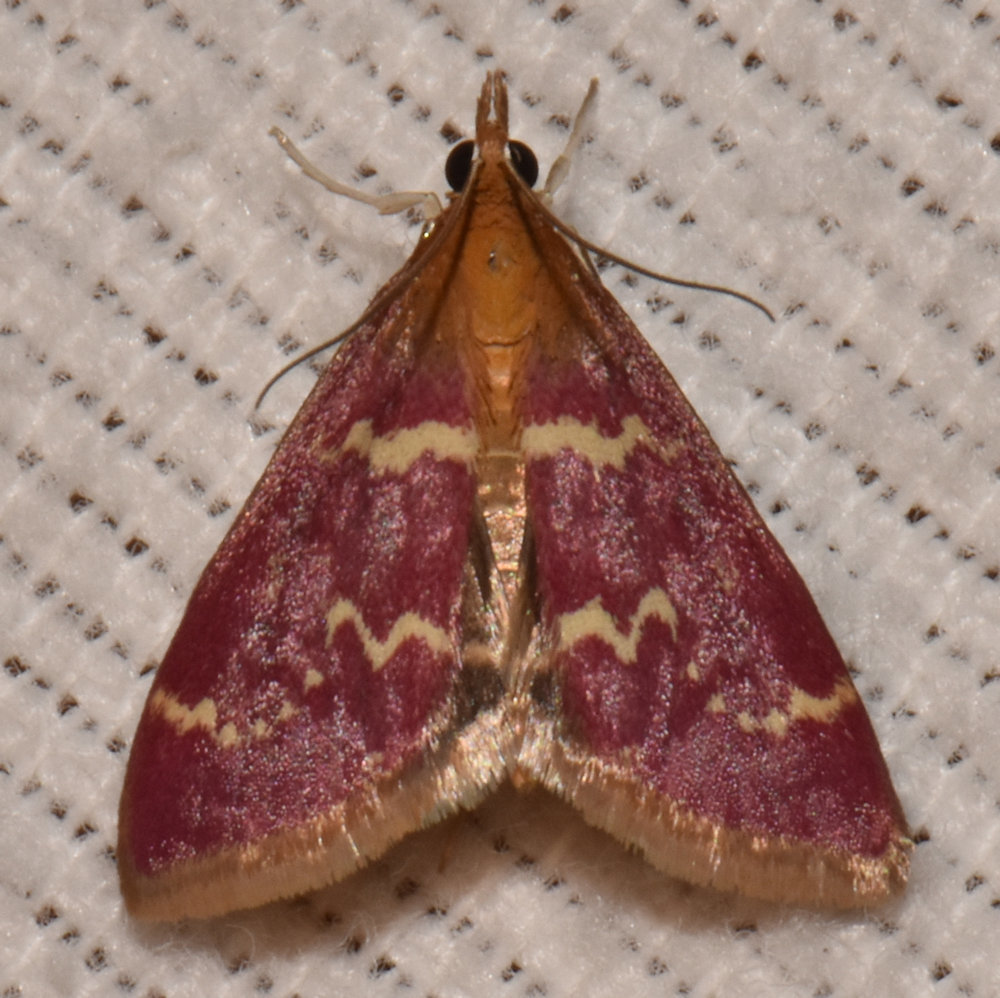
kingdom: Animalia
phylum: Arthropoda
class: Insecta
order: Lepidoptera
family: Crambidae
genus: Pyrausta
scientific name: Pyrausta signatalis
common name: Raspberry pyrausta moth
